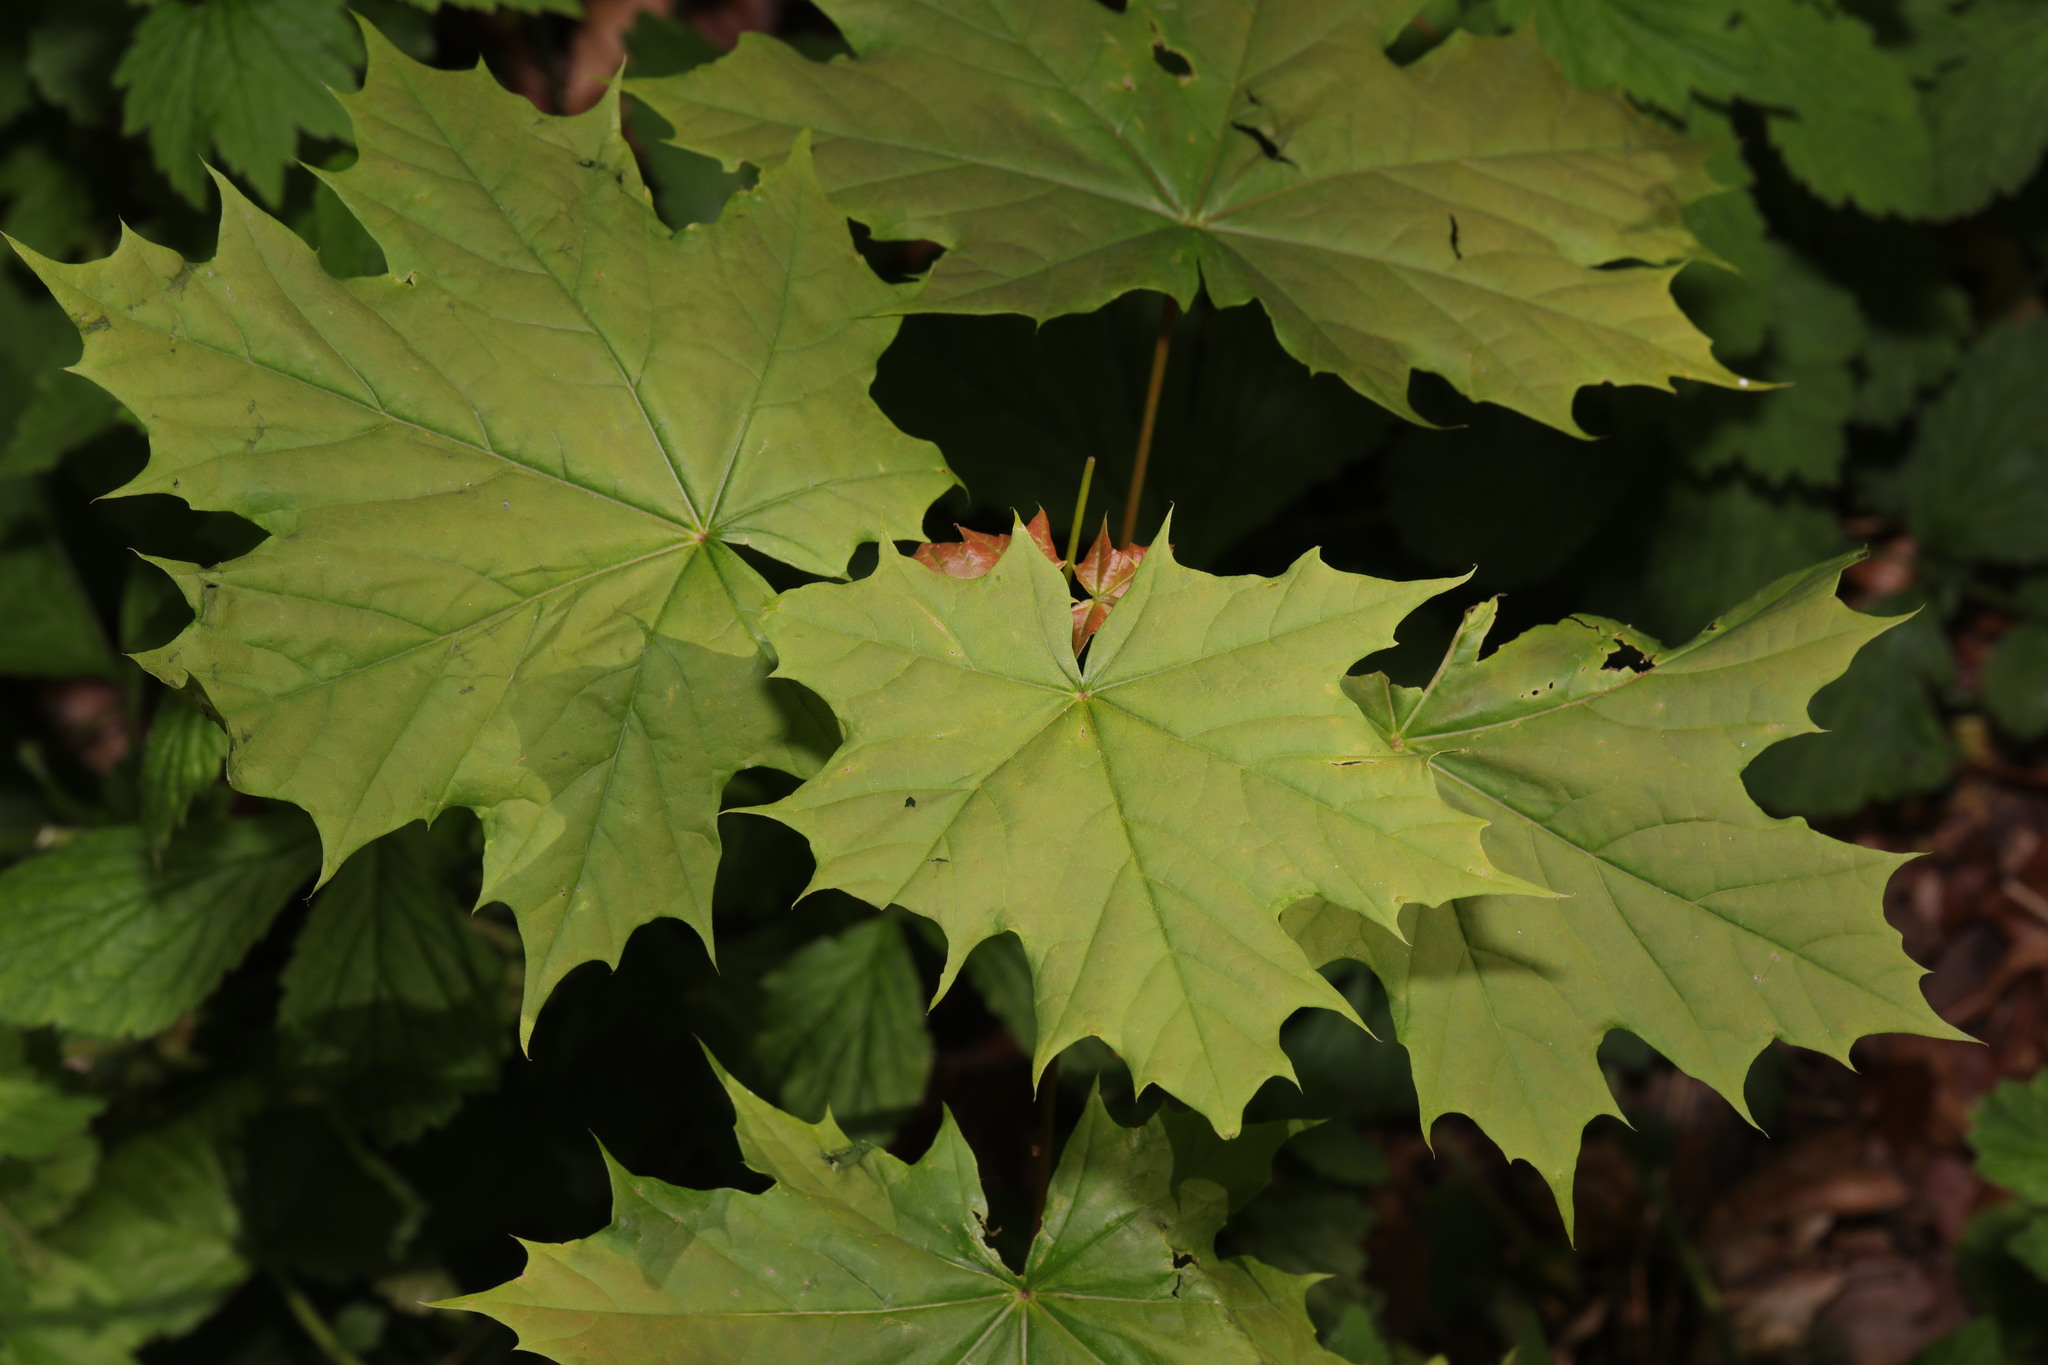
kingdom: Plantae
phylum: Tracheophyta
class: Magnoliopsida
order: Sapindales
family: Sapindaceae
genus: Acer
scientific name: Acer platanoides
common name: Norway maple
